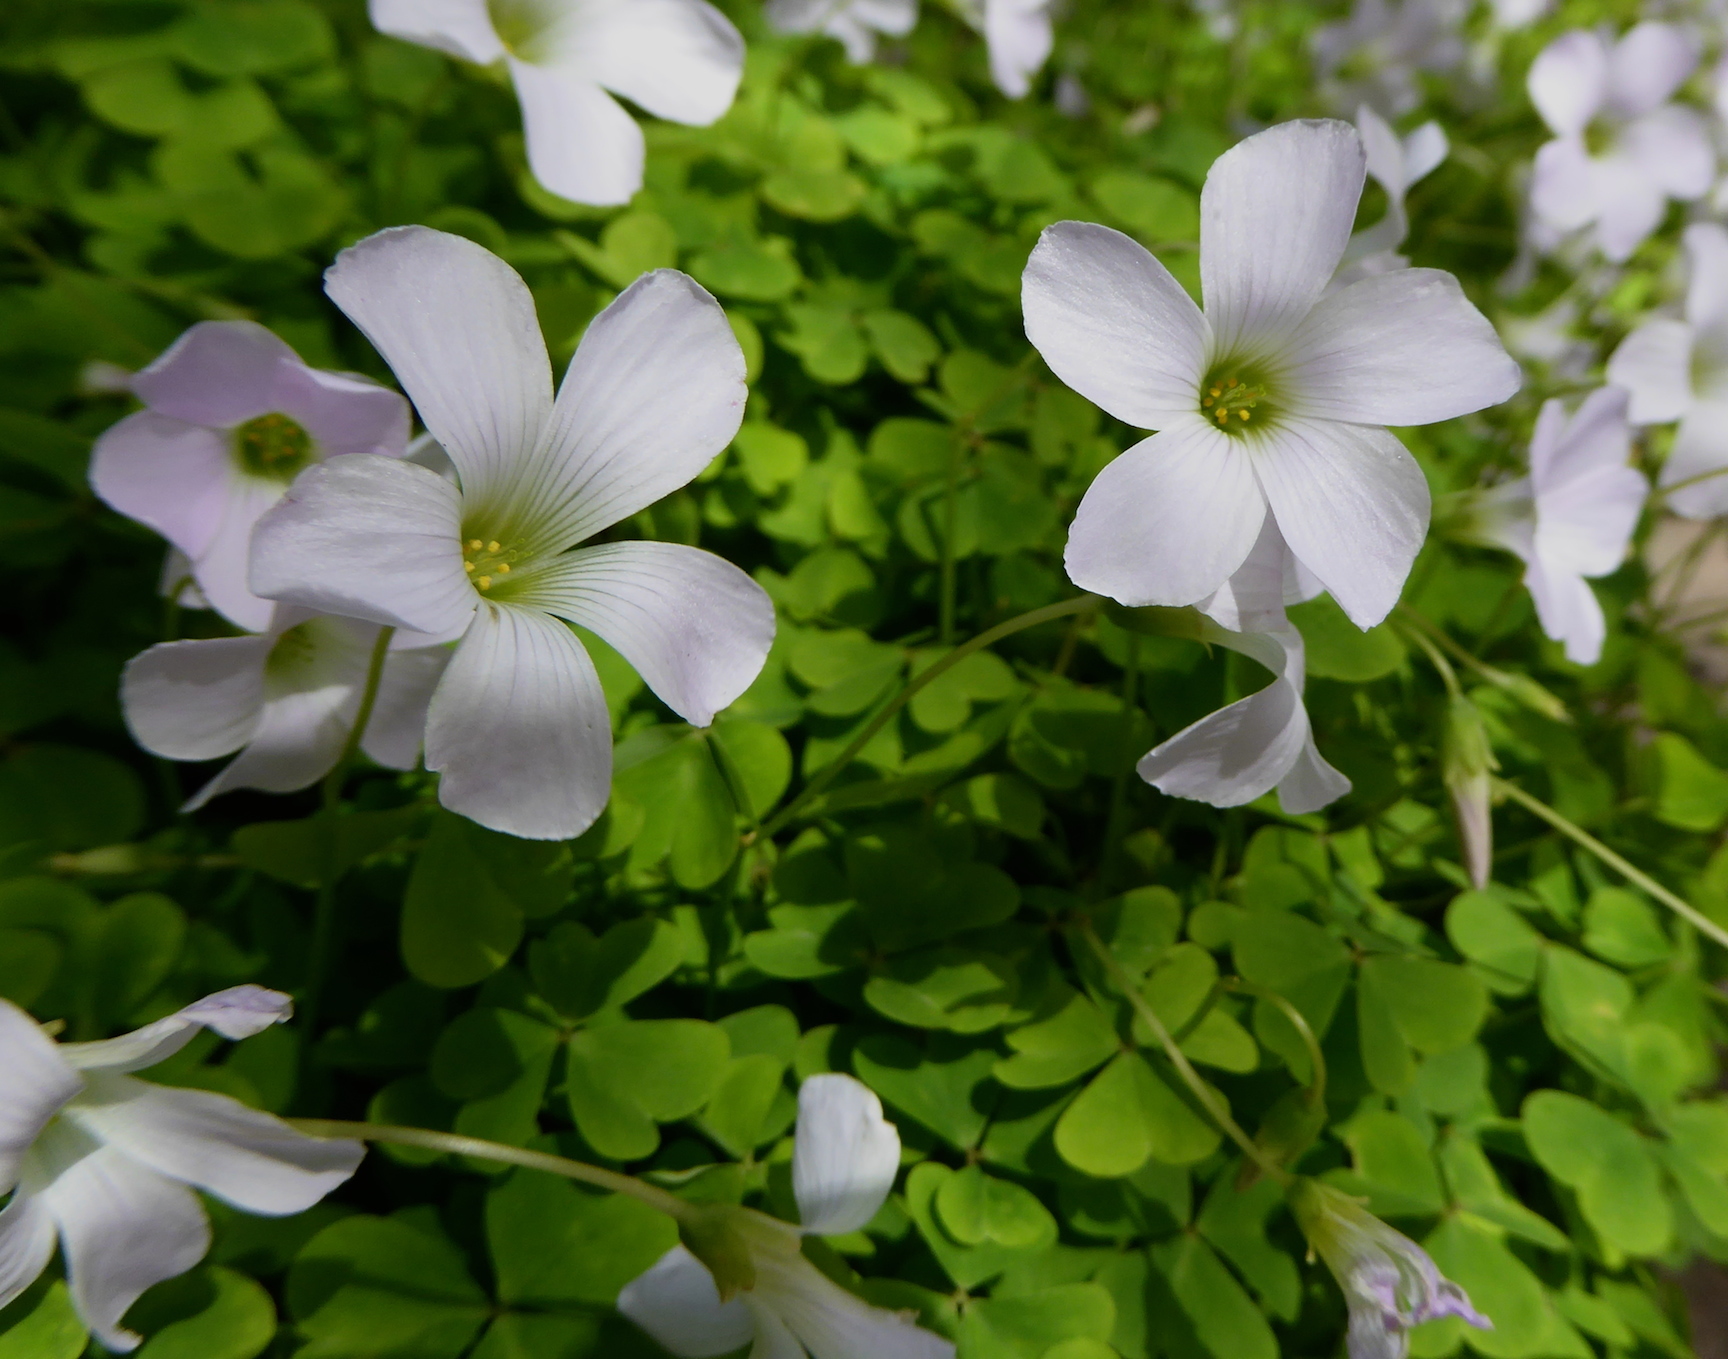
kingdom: Plantae
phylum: Tracheophyta
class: Magnoliopsida
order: Oxalidales
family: Oxalidaceae
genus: Oxalis
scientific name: Oxalis incarnata
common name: Pale pink-sorrel
